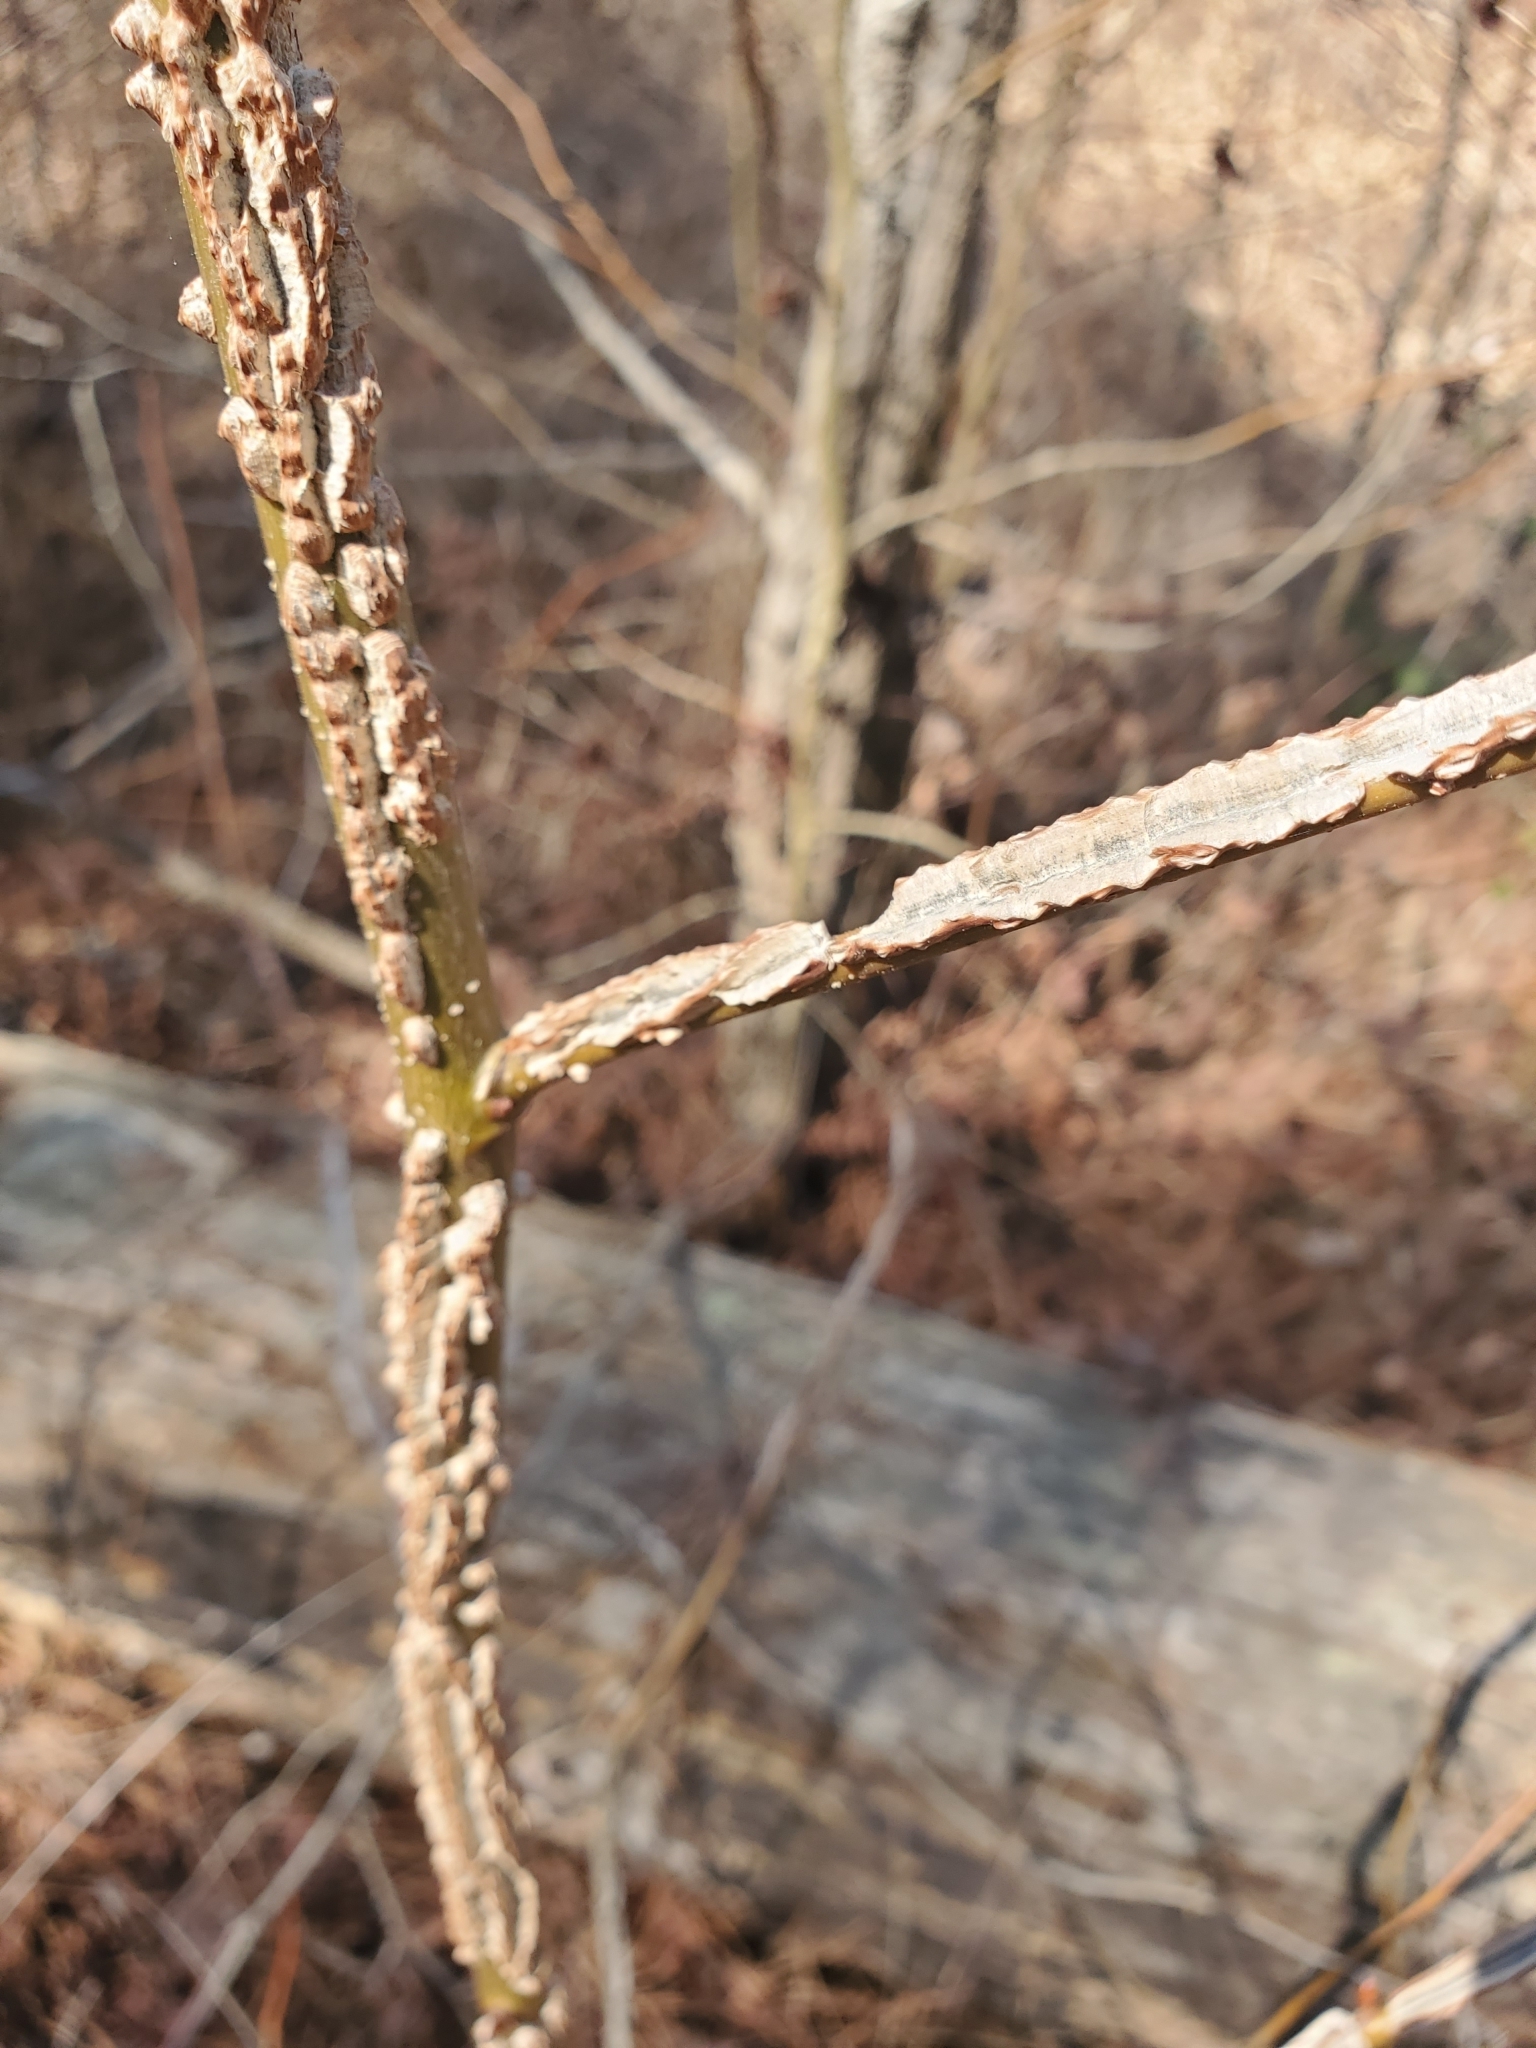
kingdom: Plantae
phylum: Tracheophyta
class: Magnoliopsida
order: Saxifragales
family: Altingiaceae
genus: Liquidambar
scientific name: Liquidambar styraciflua
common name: Sweet gum
